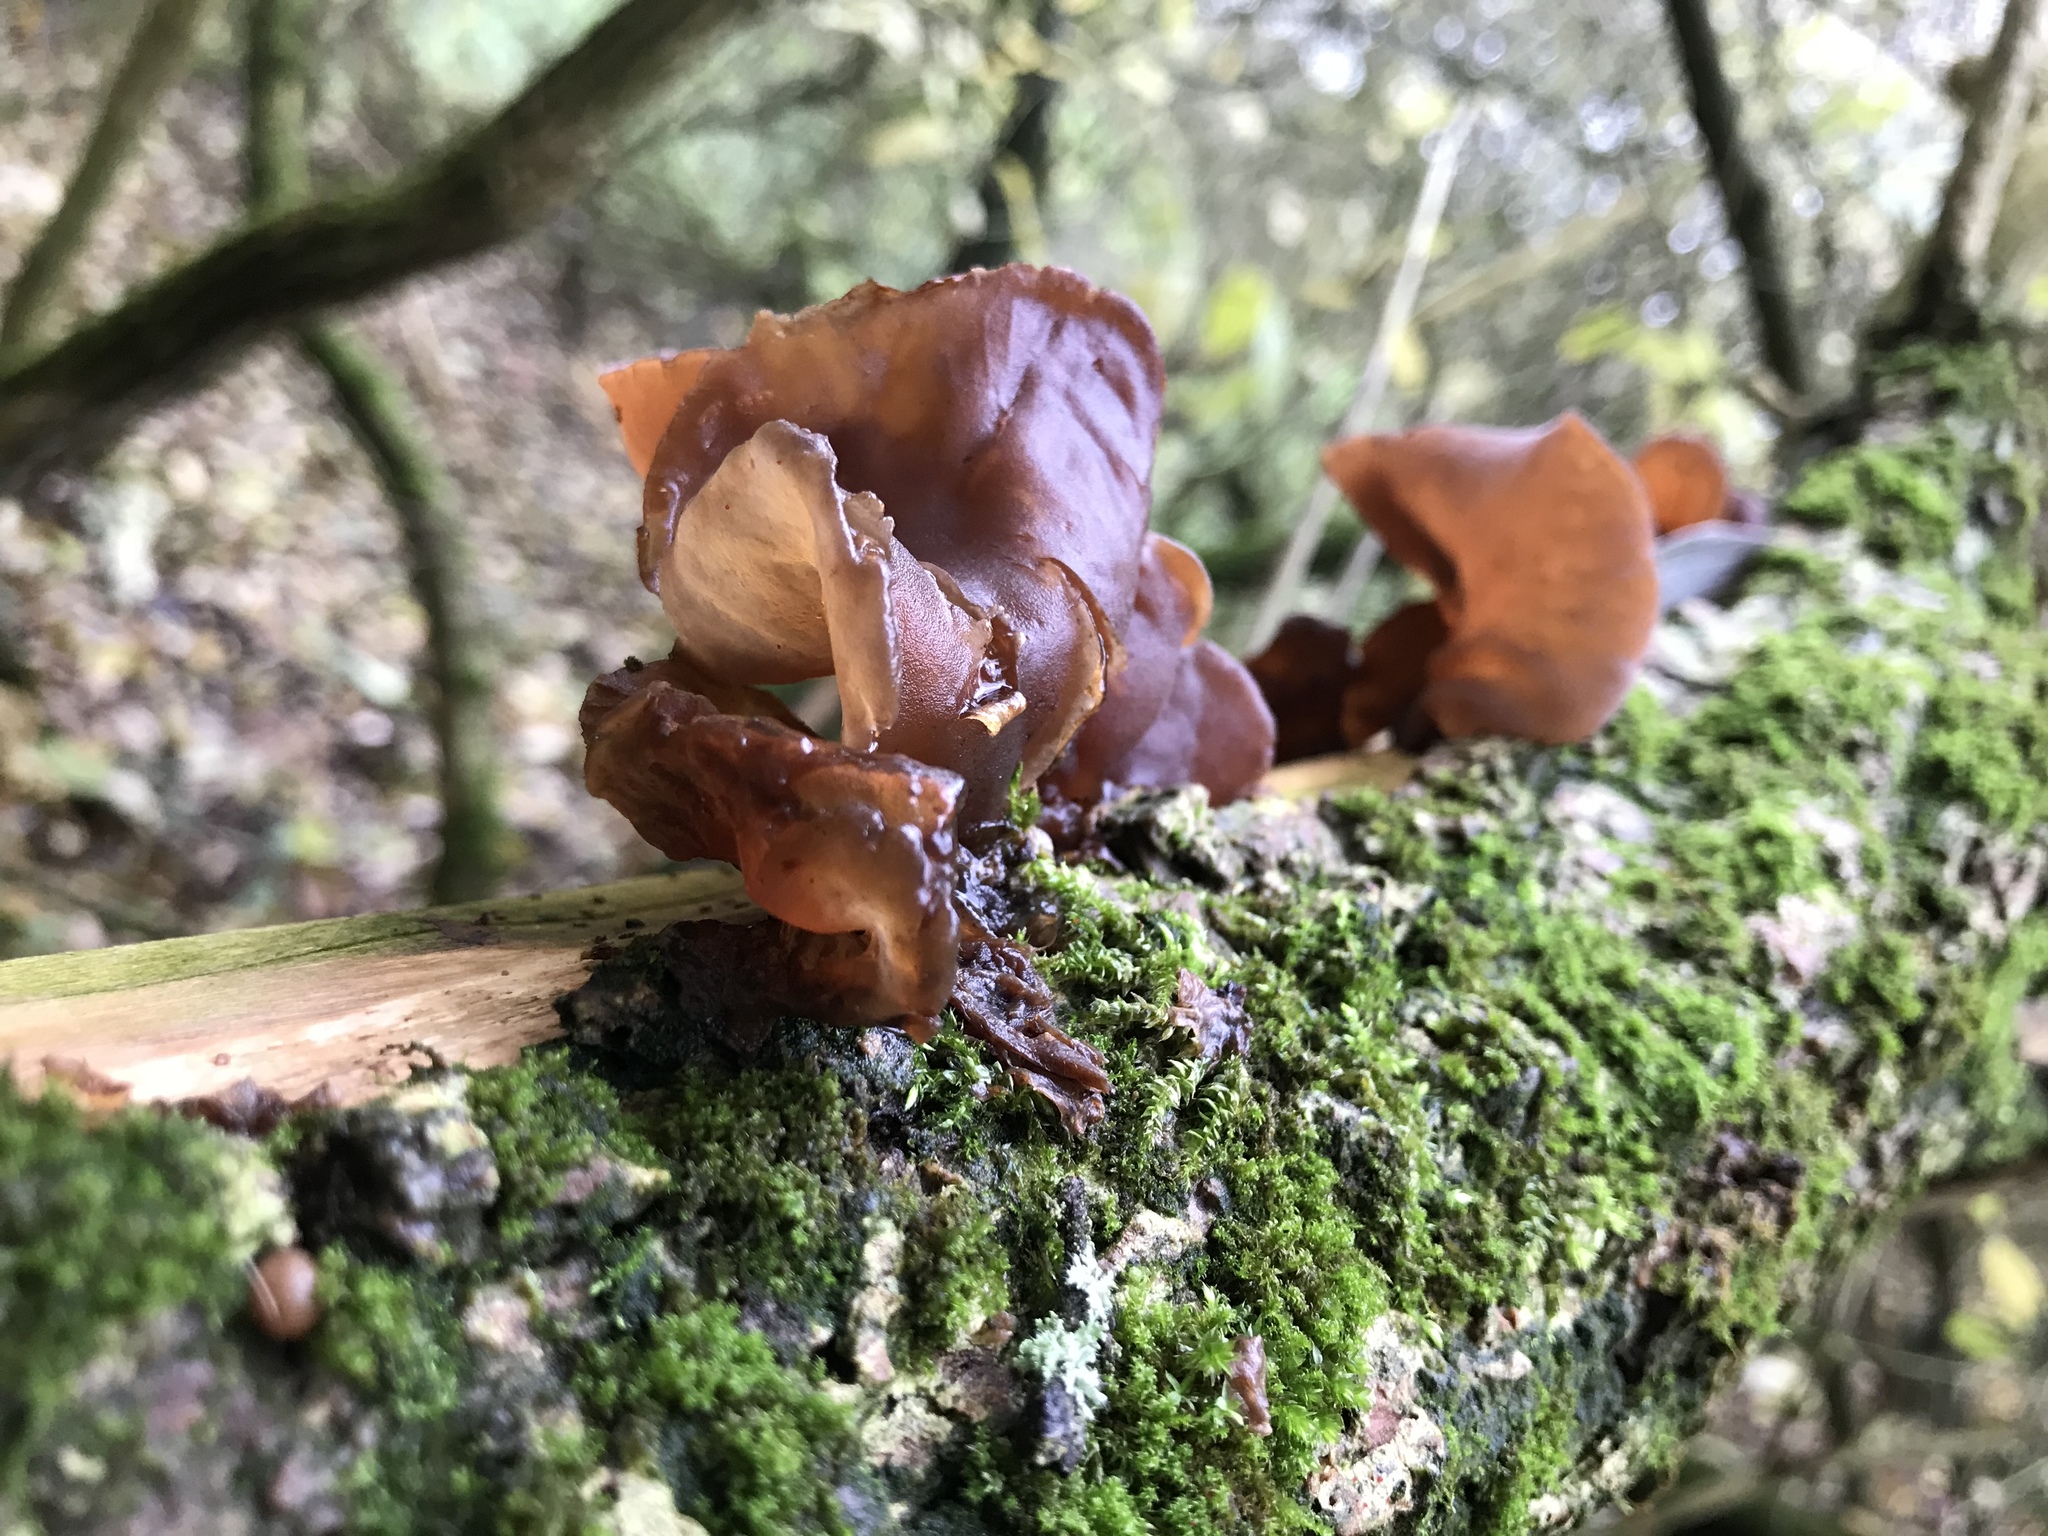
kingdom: Fungi
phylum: Basidiomycota
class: Agaricomycetes
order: Auriculariales
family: Auriculariaceae
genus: Auricularia
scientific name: Auricularia auricula-judae
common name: Jelly ear
